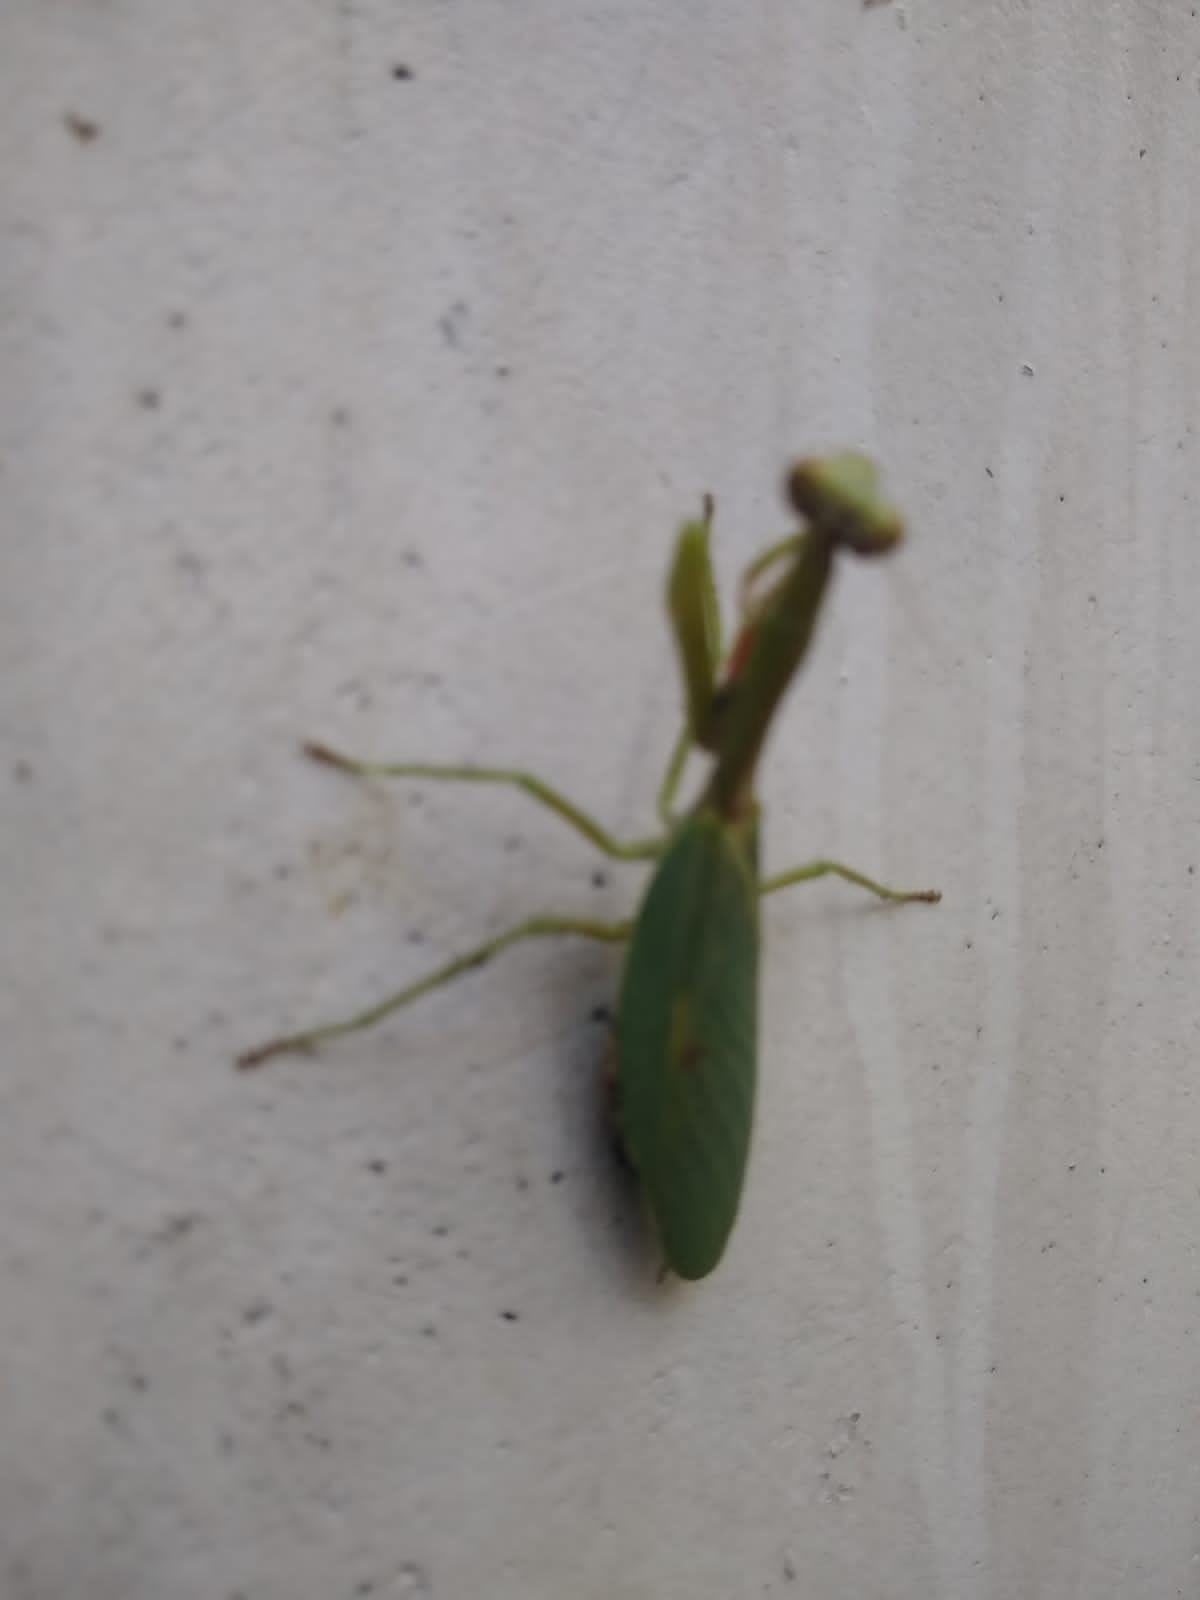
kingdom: Animalia
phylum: Arthropoda
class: Insecta
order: Mantodea
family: Mantidae
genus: Parastagmatoptera
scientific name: Parastagmatoptera unipunctata
